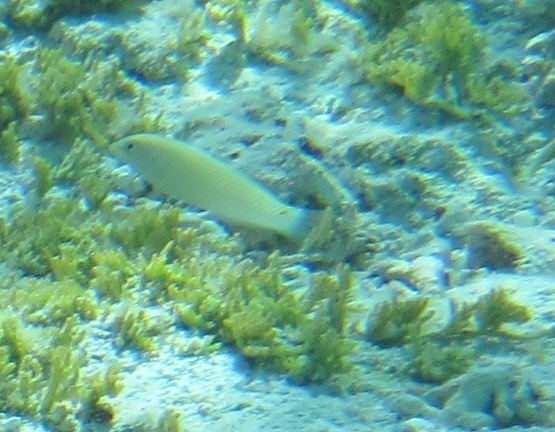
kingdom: Animalia
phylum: Chordata
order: Perciformes
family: Labridae
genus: Halichoeres
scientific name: Halichoeres trimaculatus
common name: Three-spot wrasse
